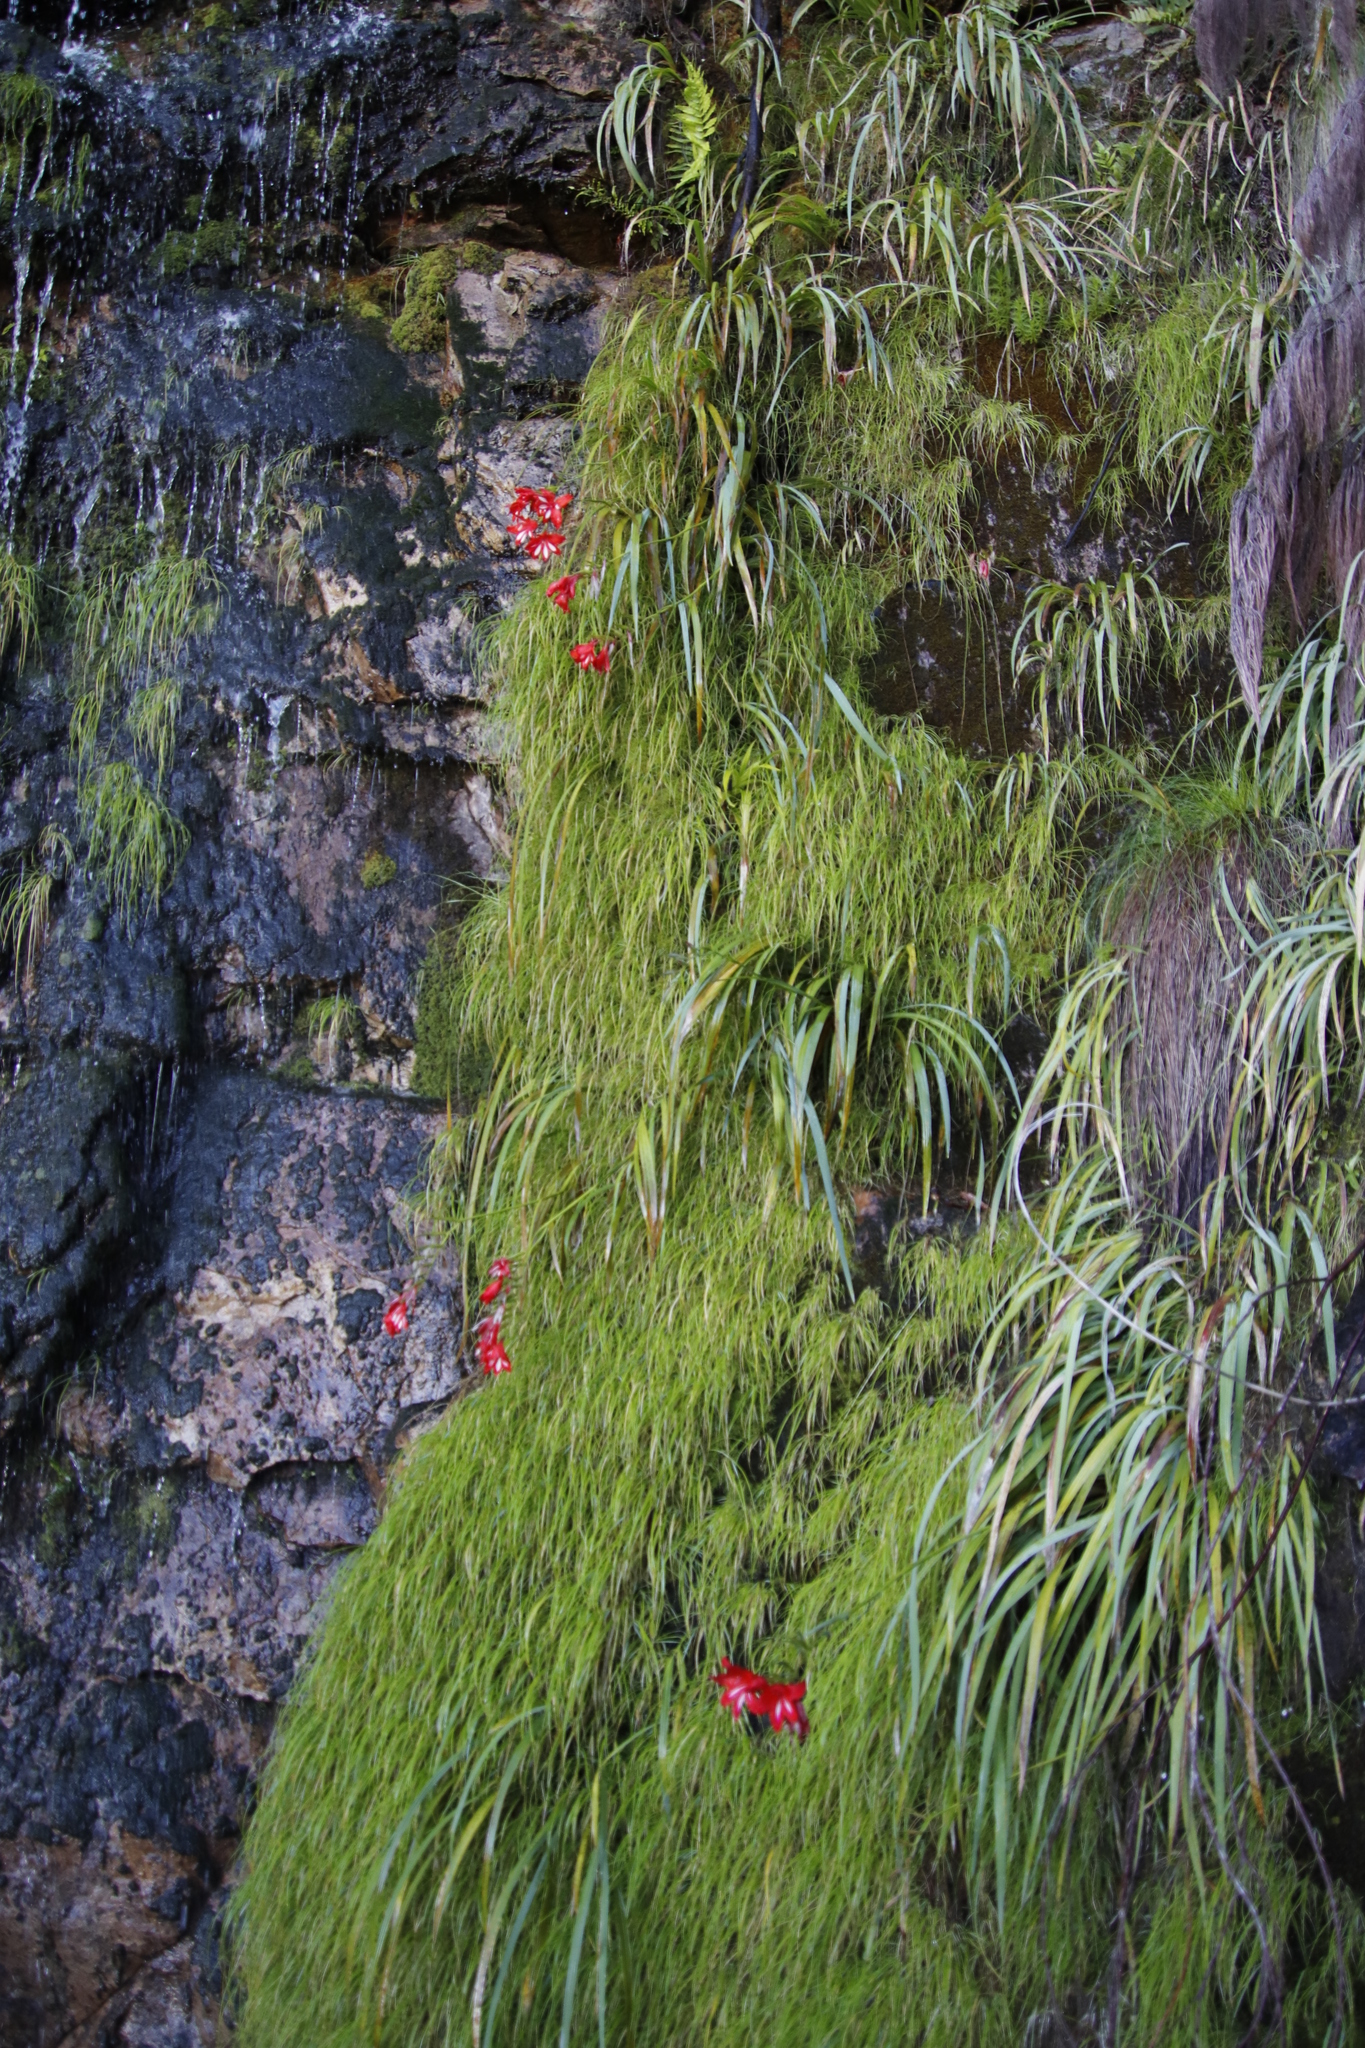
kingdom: Plantae
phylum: Tracheophyta
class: Liliopsida
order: Asparagales
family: Iridaceae
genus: Gladiolus
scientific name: Gladiolus cardinalis
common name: New year-lily
